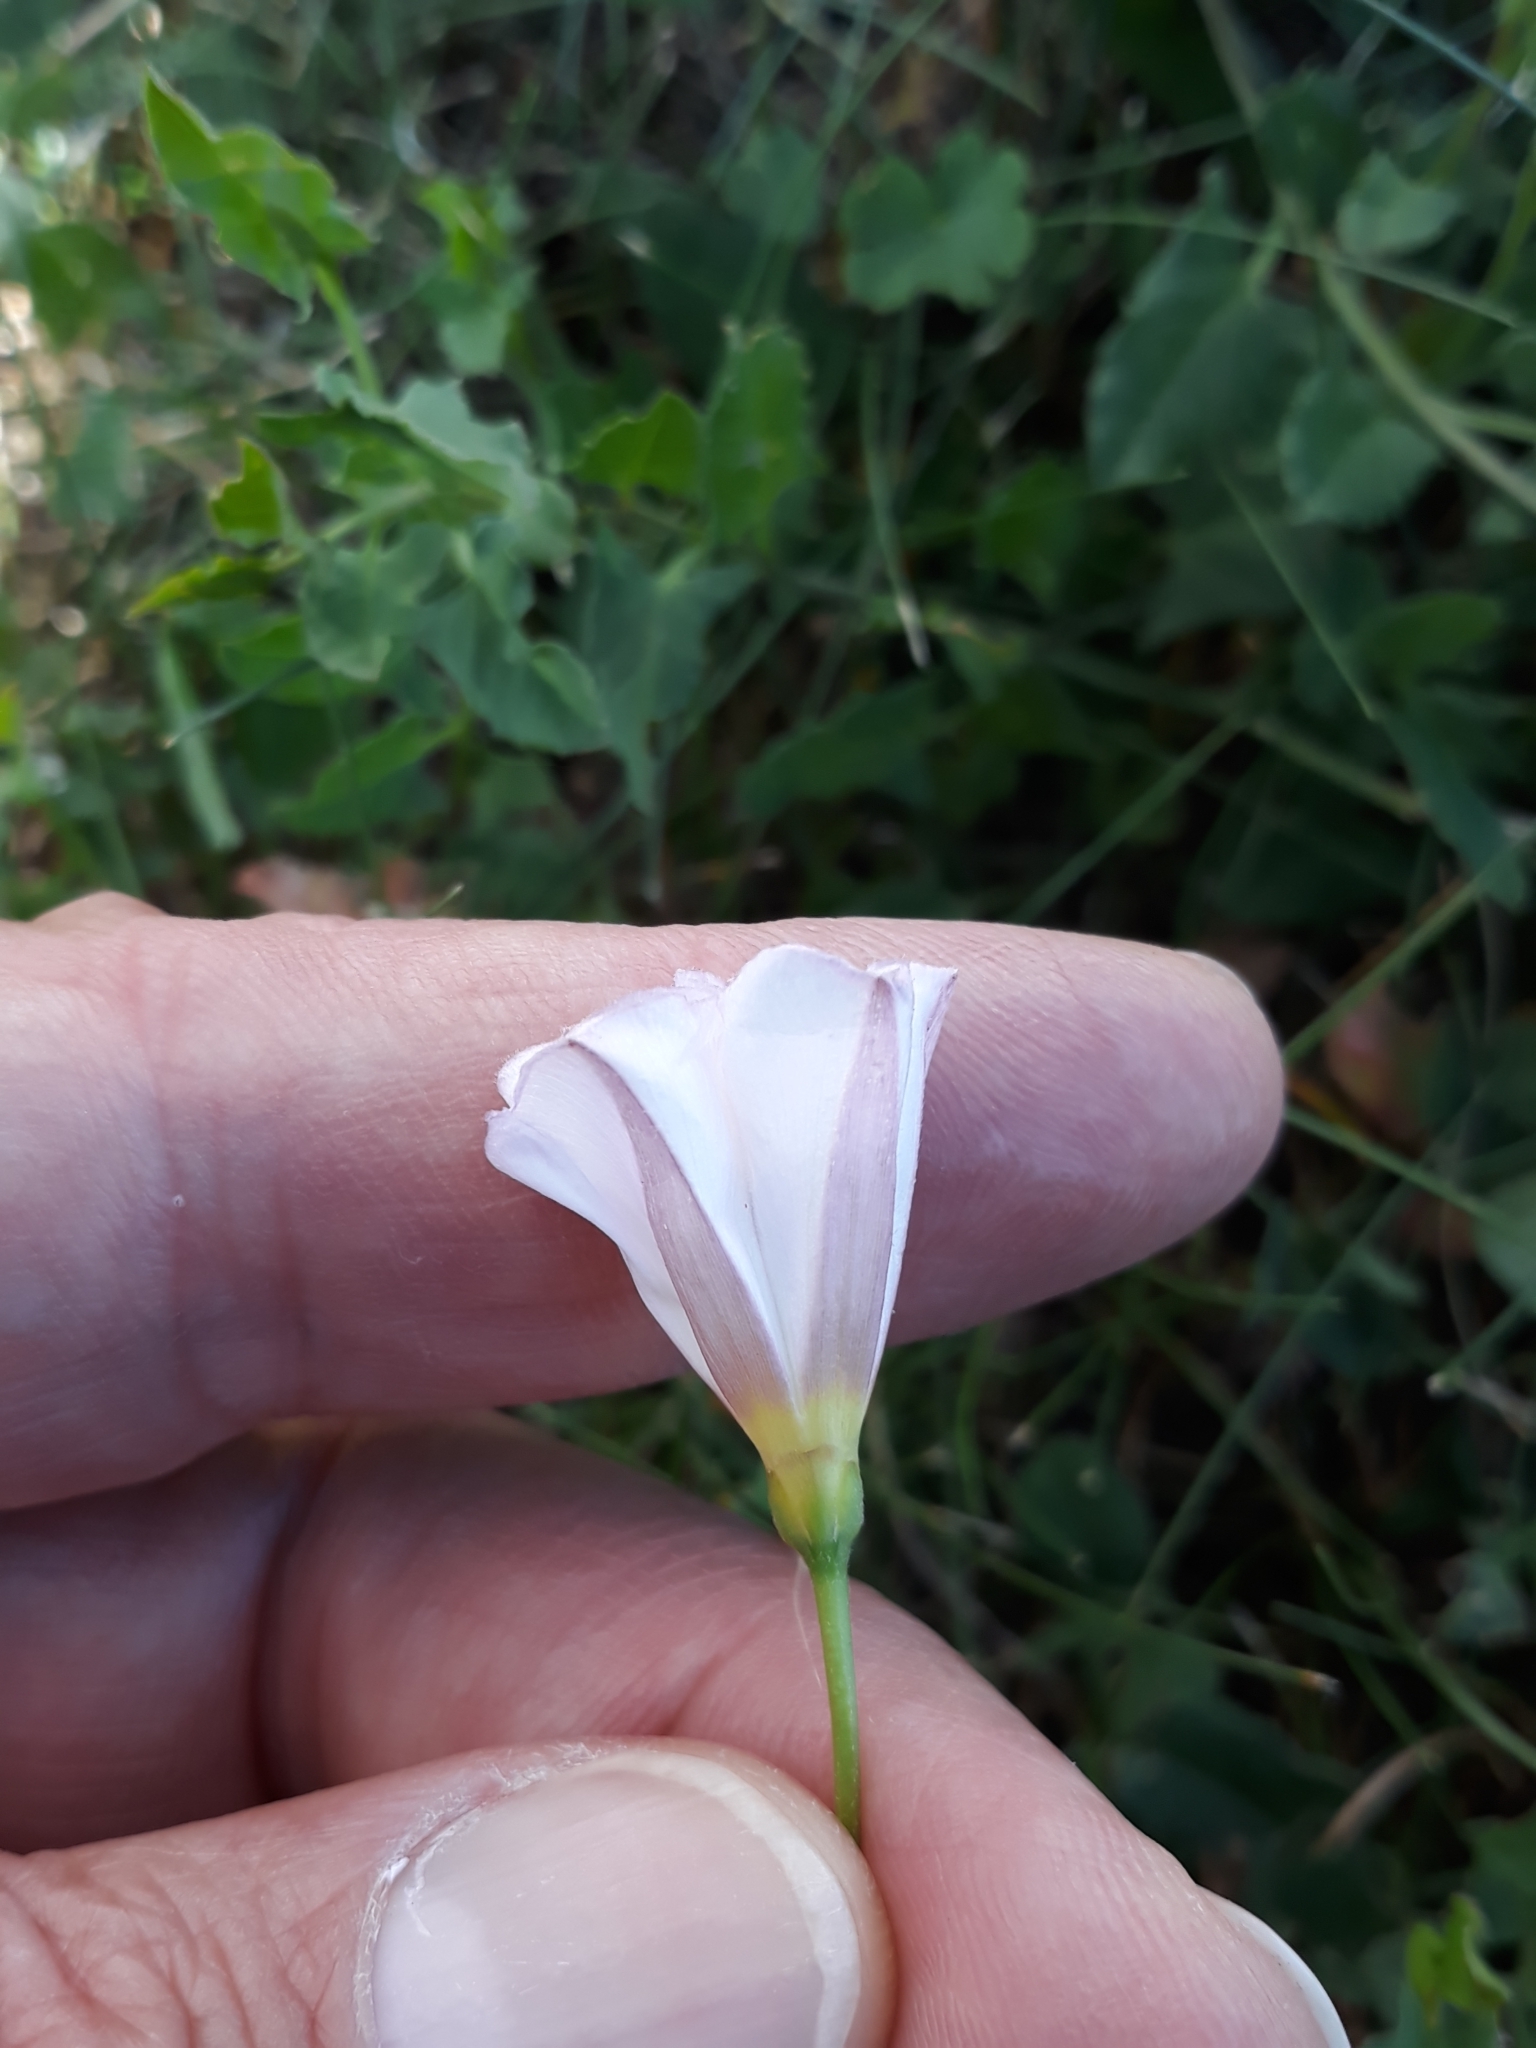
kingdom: Plantae
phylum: Tracheophyta
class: Magnoliopsida
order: Solanales
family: Convolvulaceae
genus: Convolvulus
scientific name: Convolvulus arvensis
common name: Field bindweed
